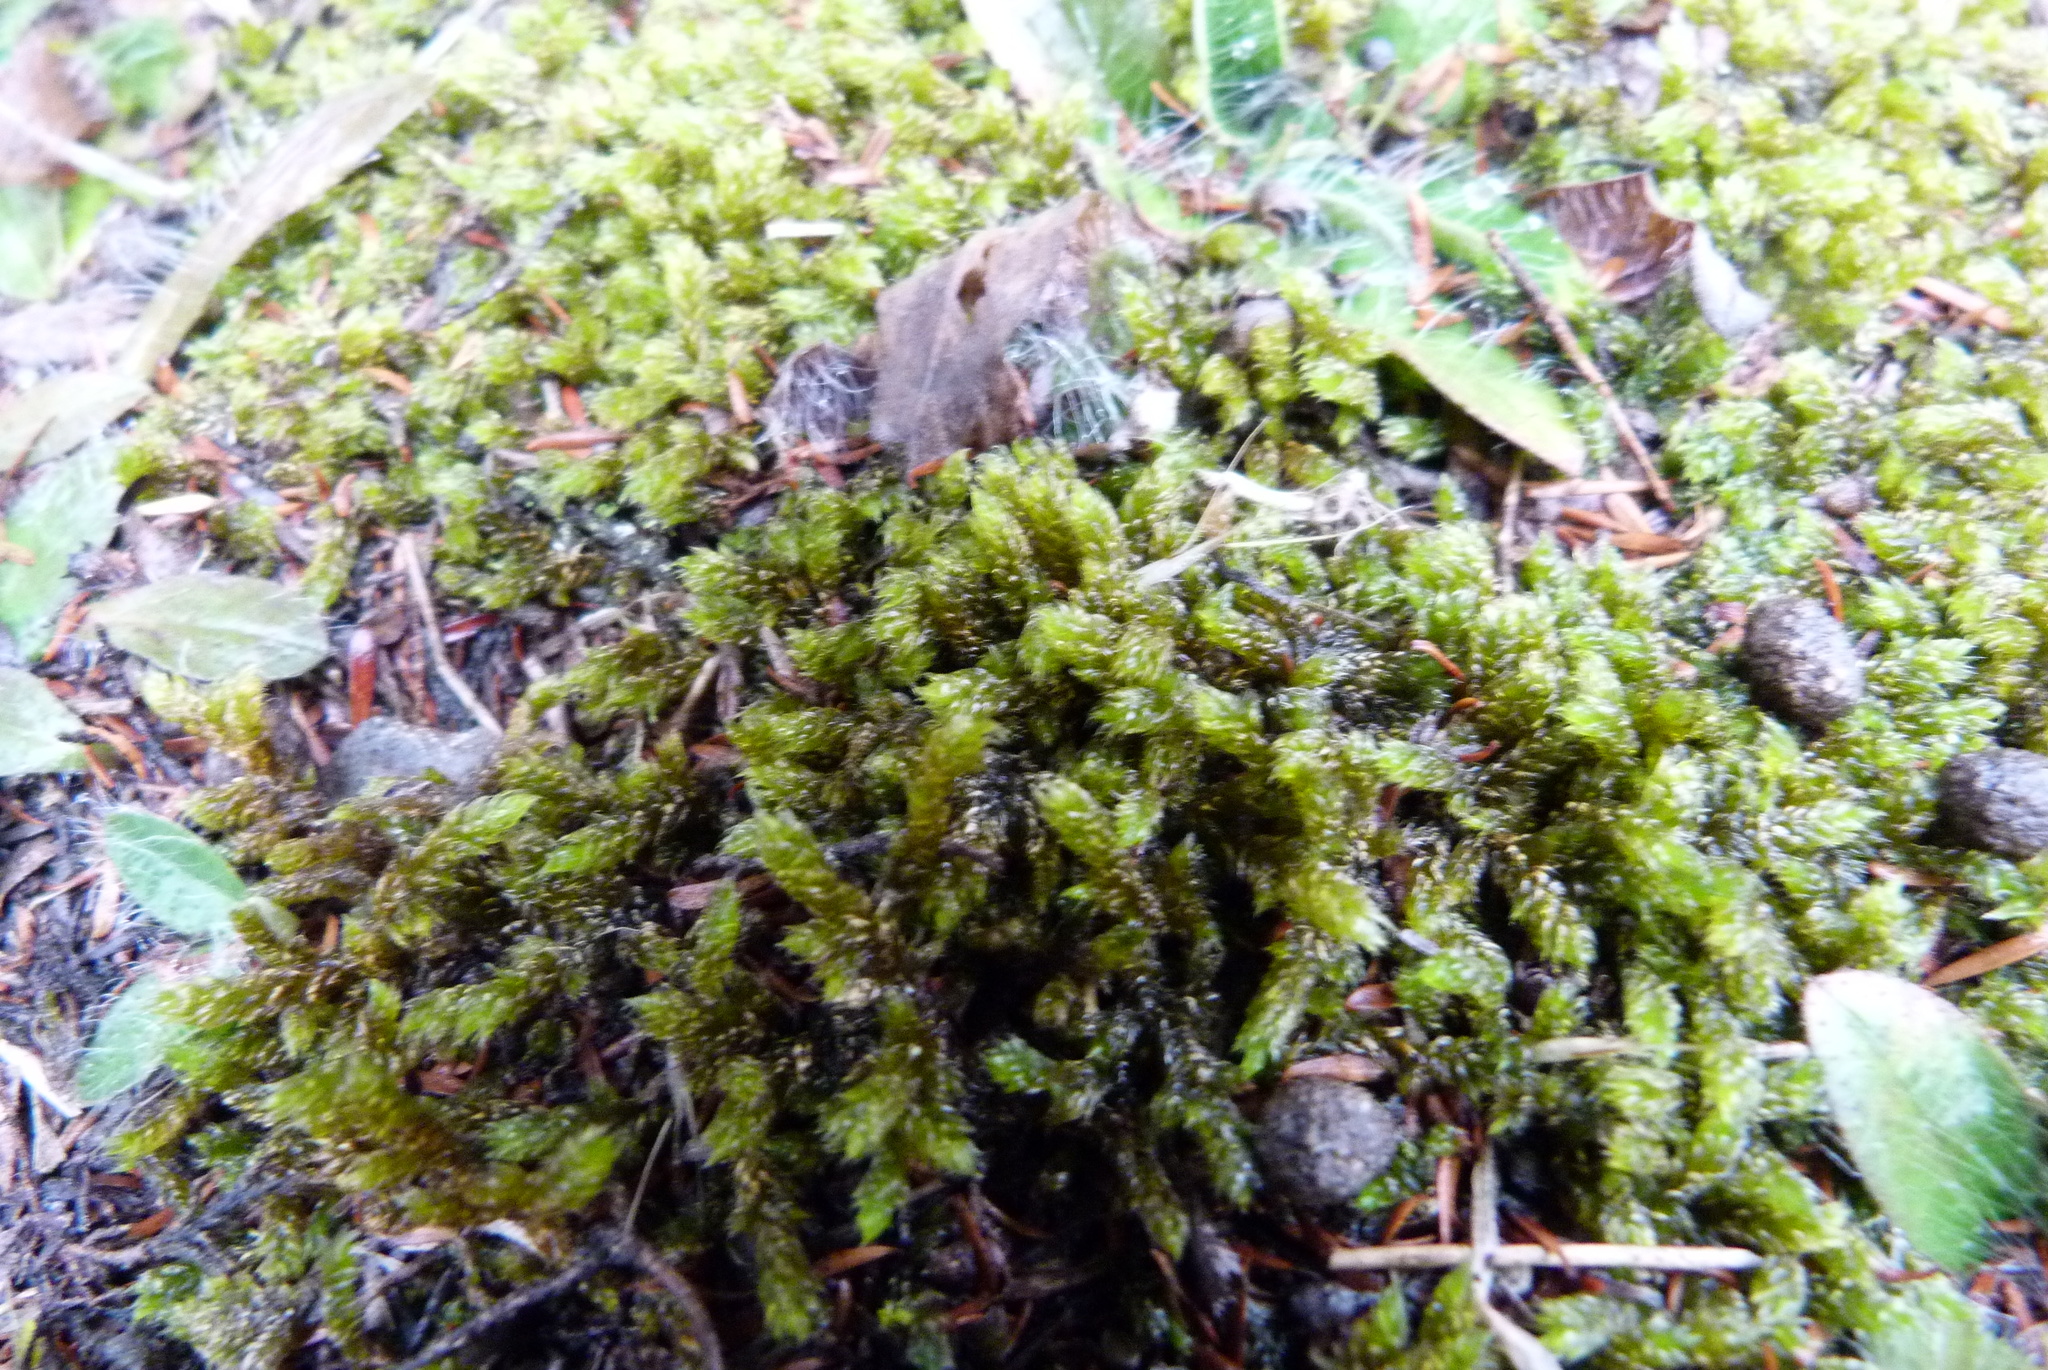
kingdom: Plantae
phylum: Bryophyta
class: Bryopsida
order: Hypnales
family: Hypnaceae
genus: Hypnum
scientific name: Hypnum cupressiforme
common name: Cypress-leaved plait-moss
